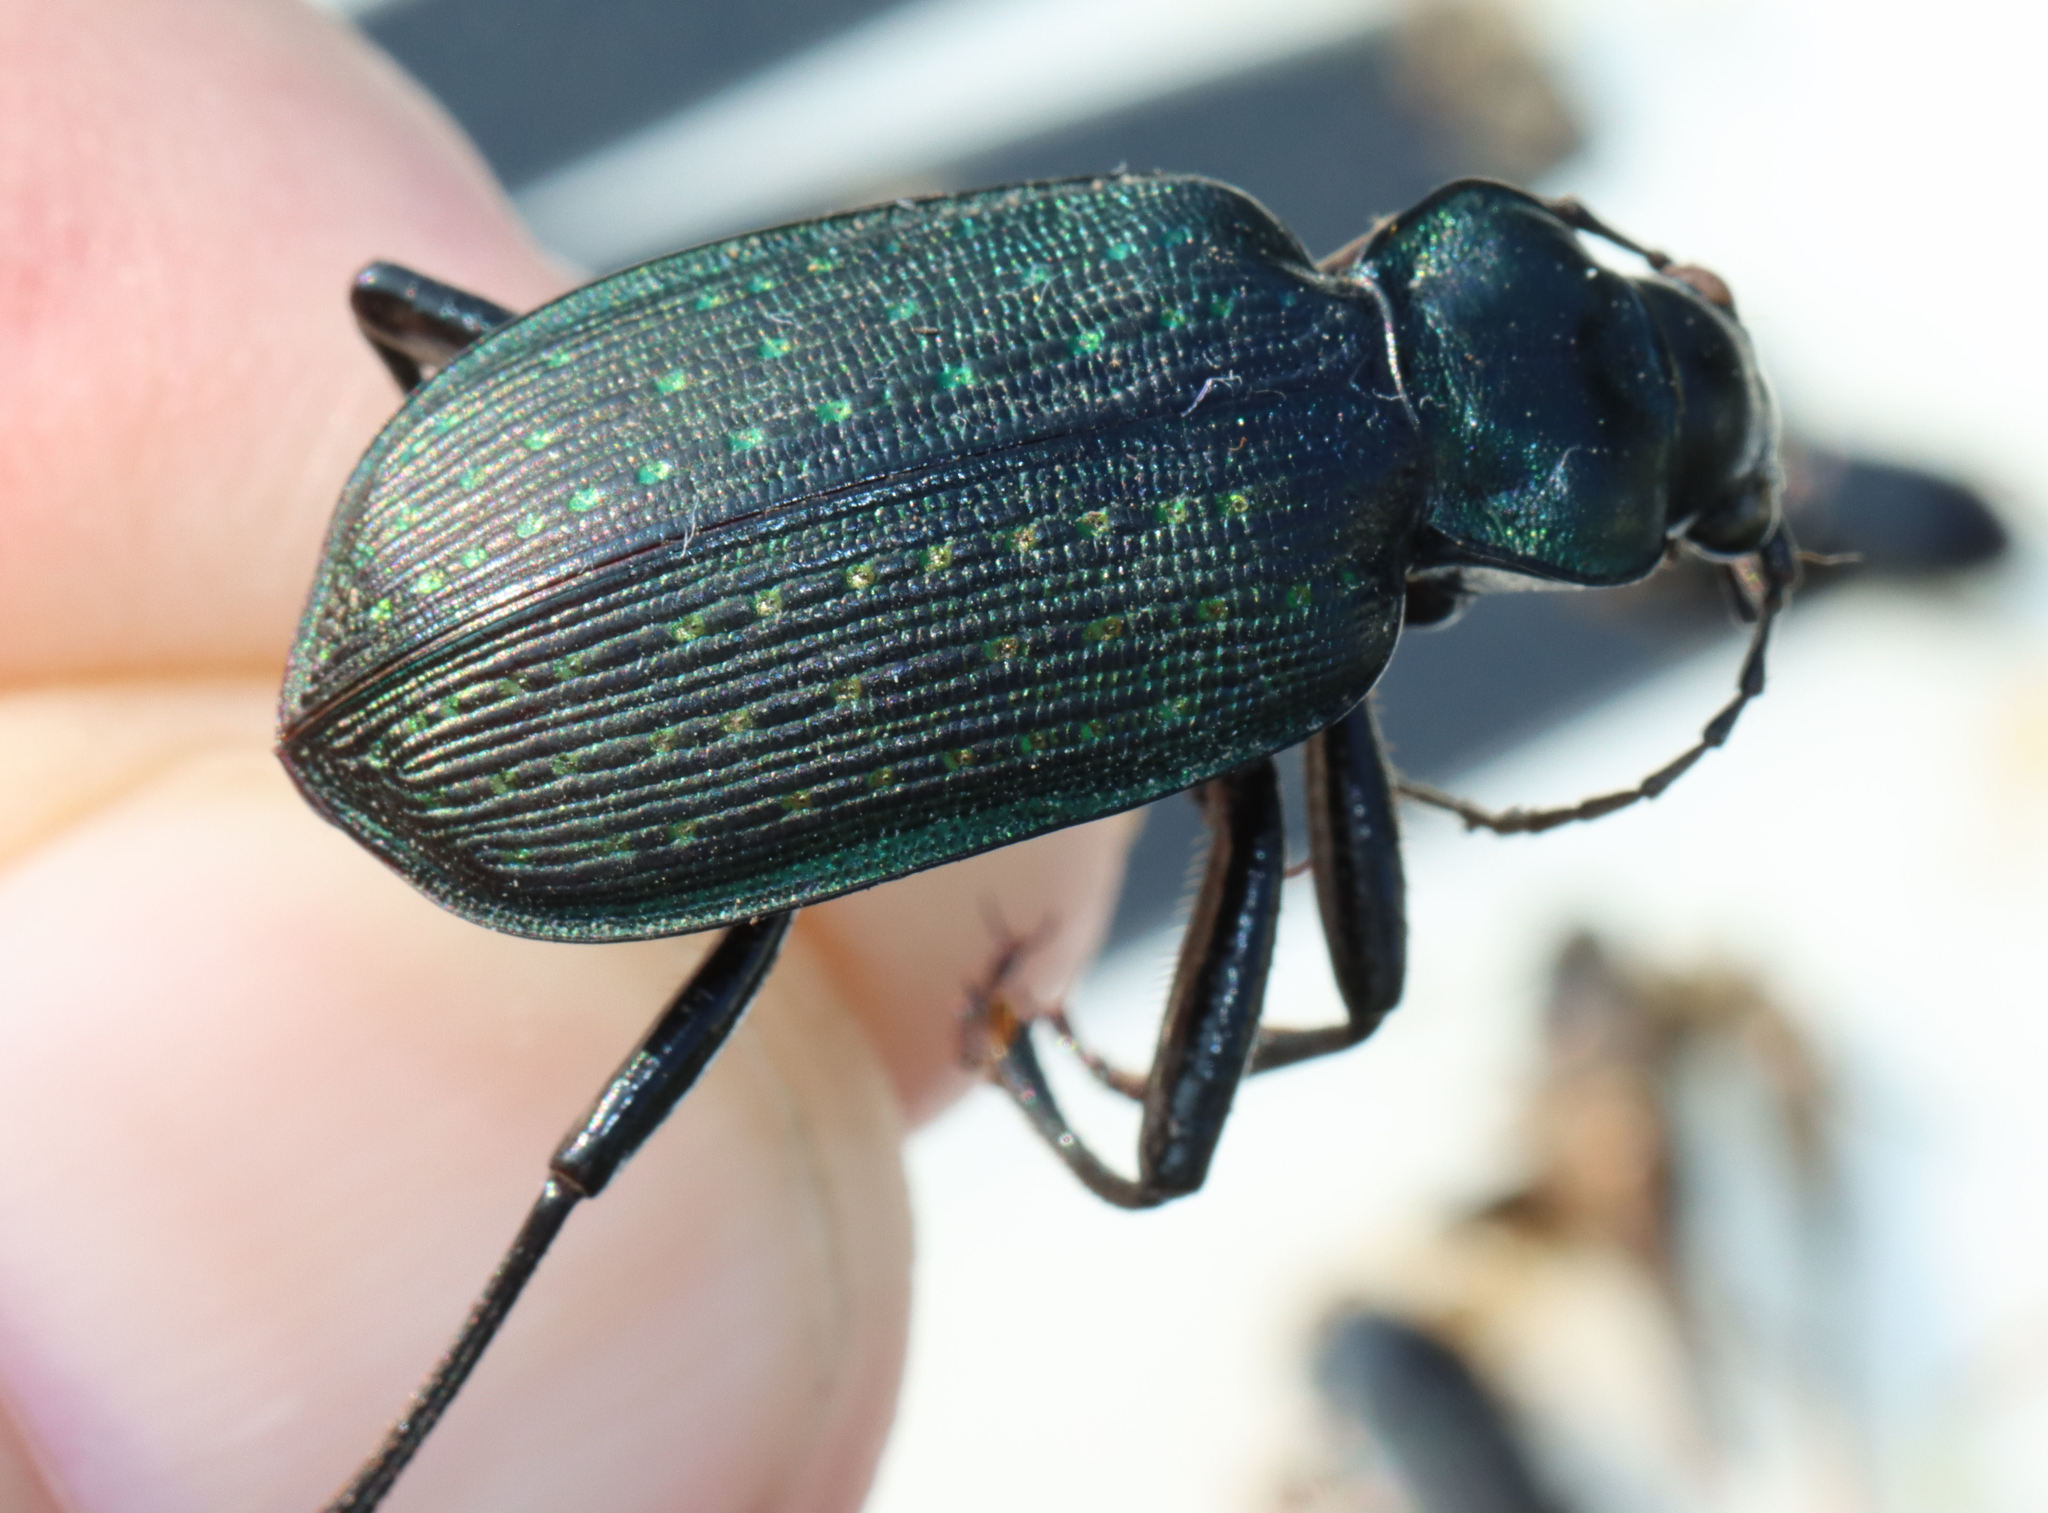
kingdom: Animalia
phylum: Arthropoda
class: Insecta
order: Coleoptera
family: Carabidae
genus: Calosoma
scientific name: Calosoma sayi
